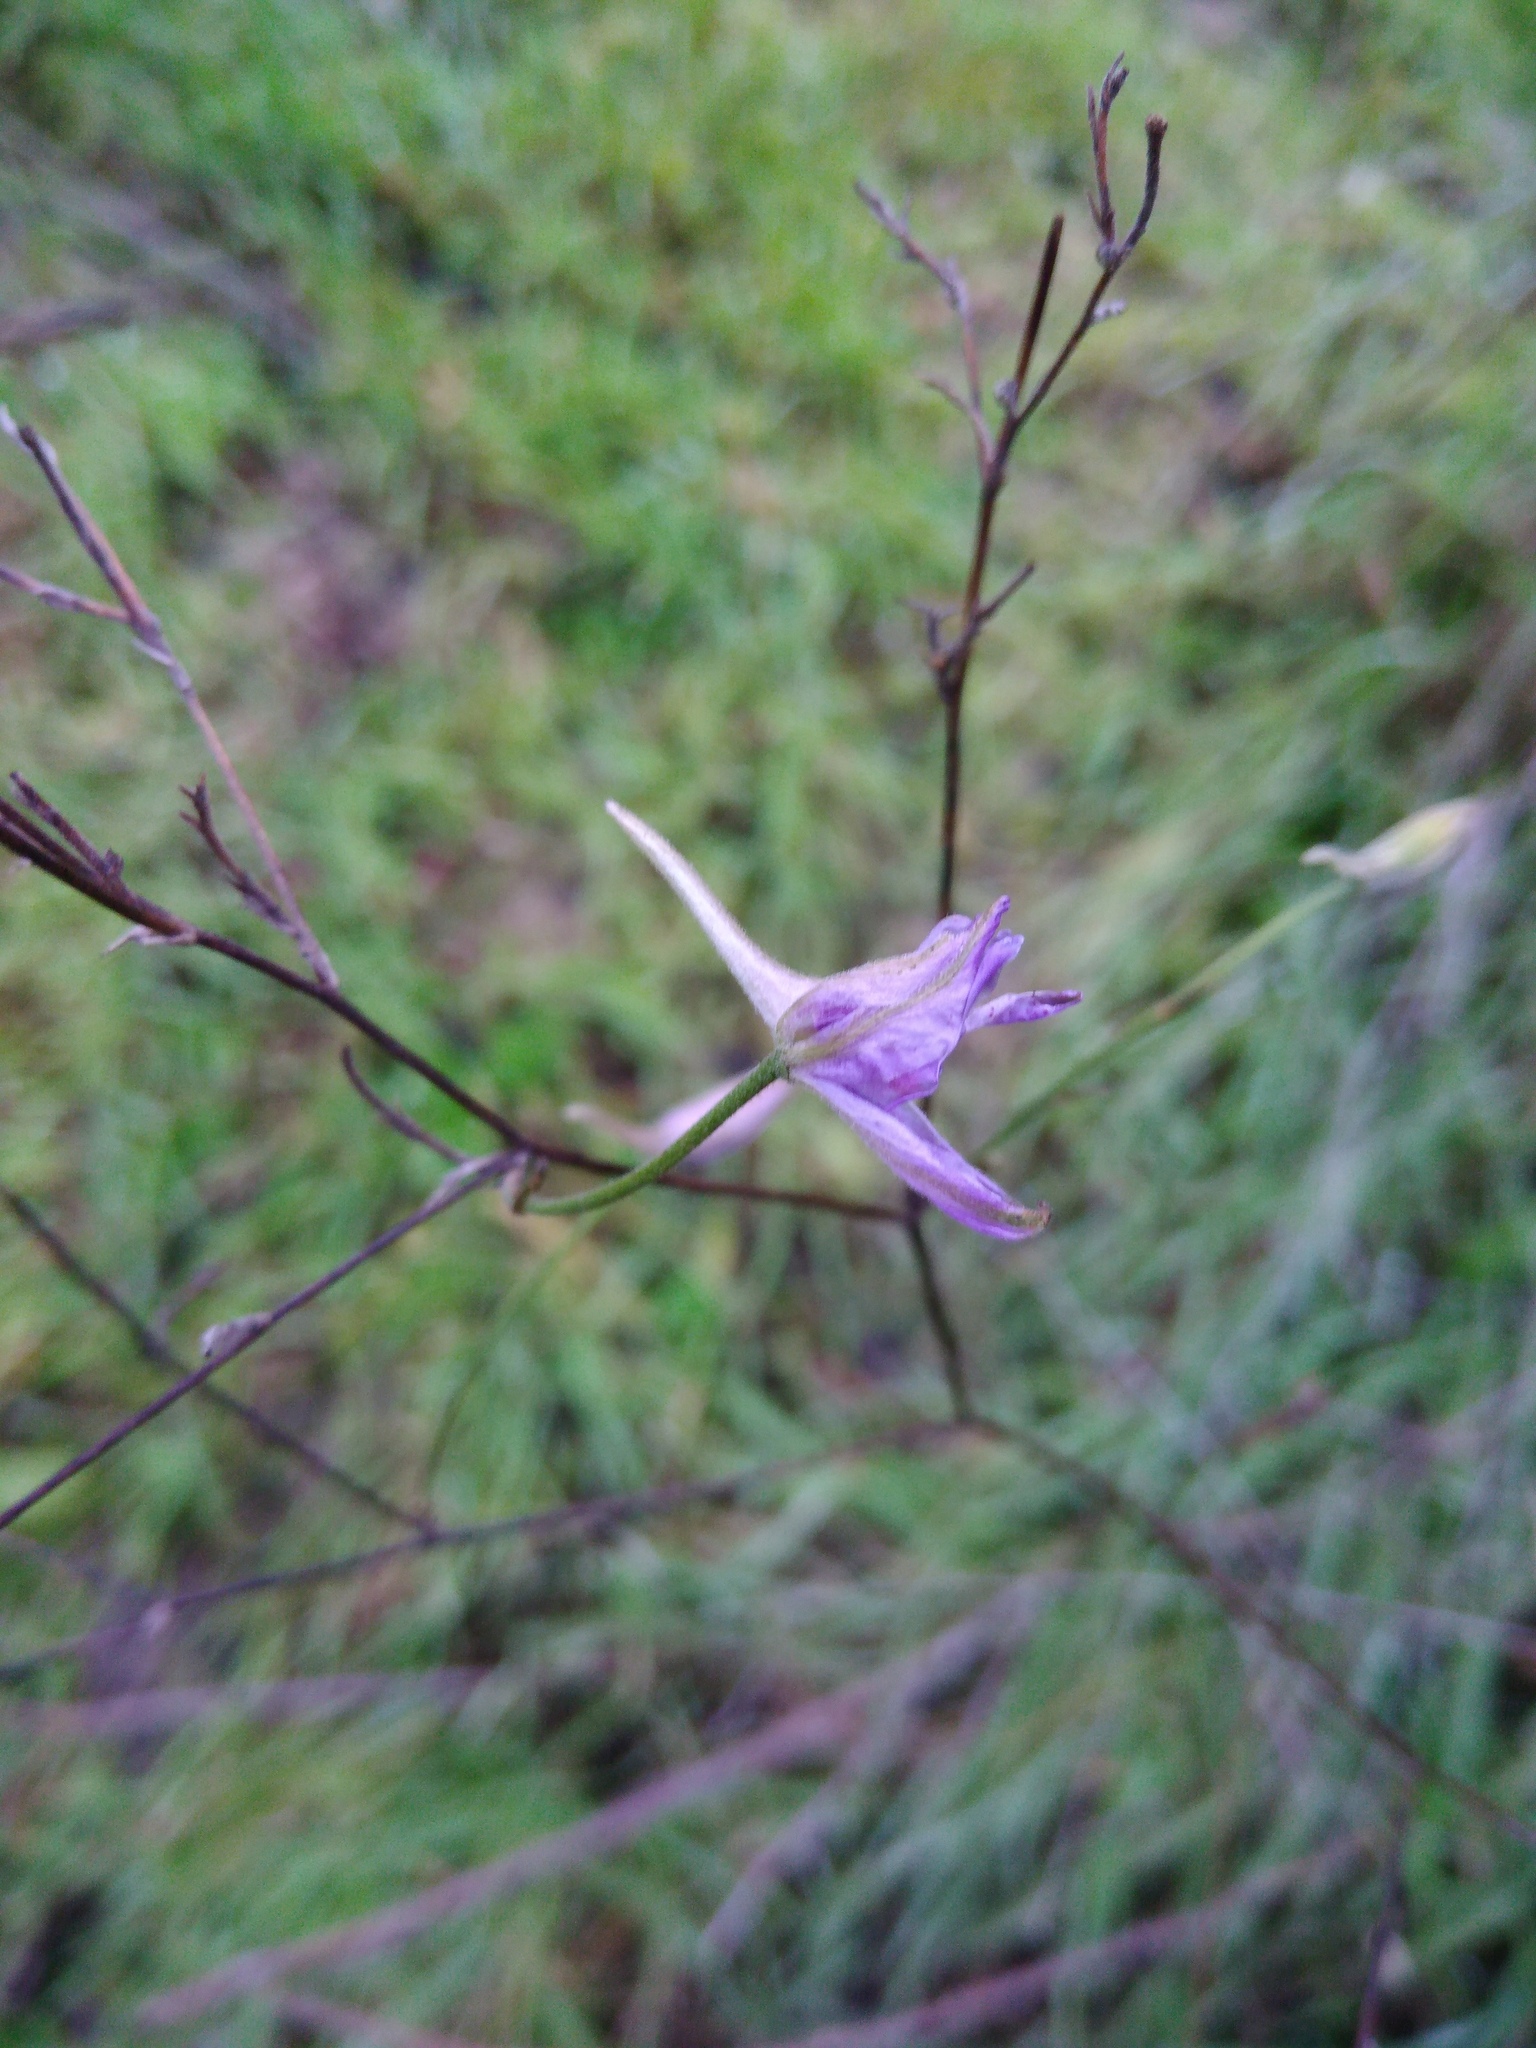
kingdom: Plantae
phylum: Tracheophyta
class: Magnoliopsida
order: Ranunculales
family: Ranunculaceae
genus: Delphinium
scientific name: Delphinium consolida
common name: Branching larkspur
